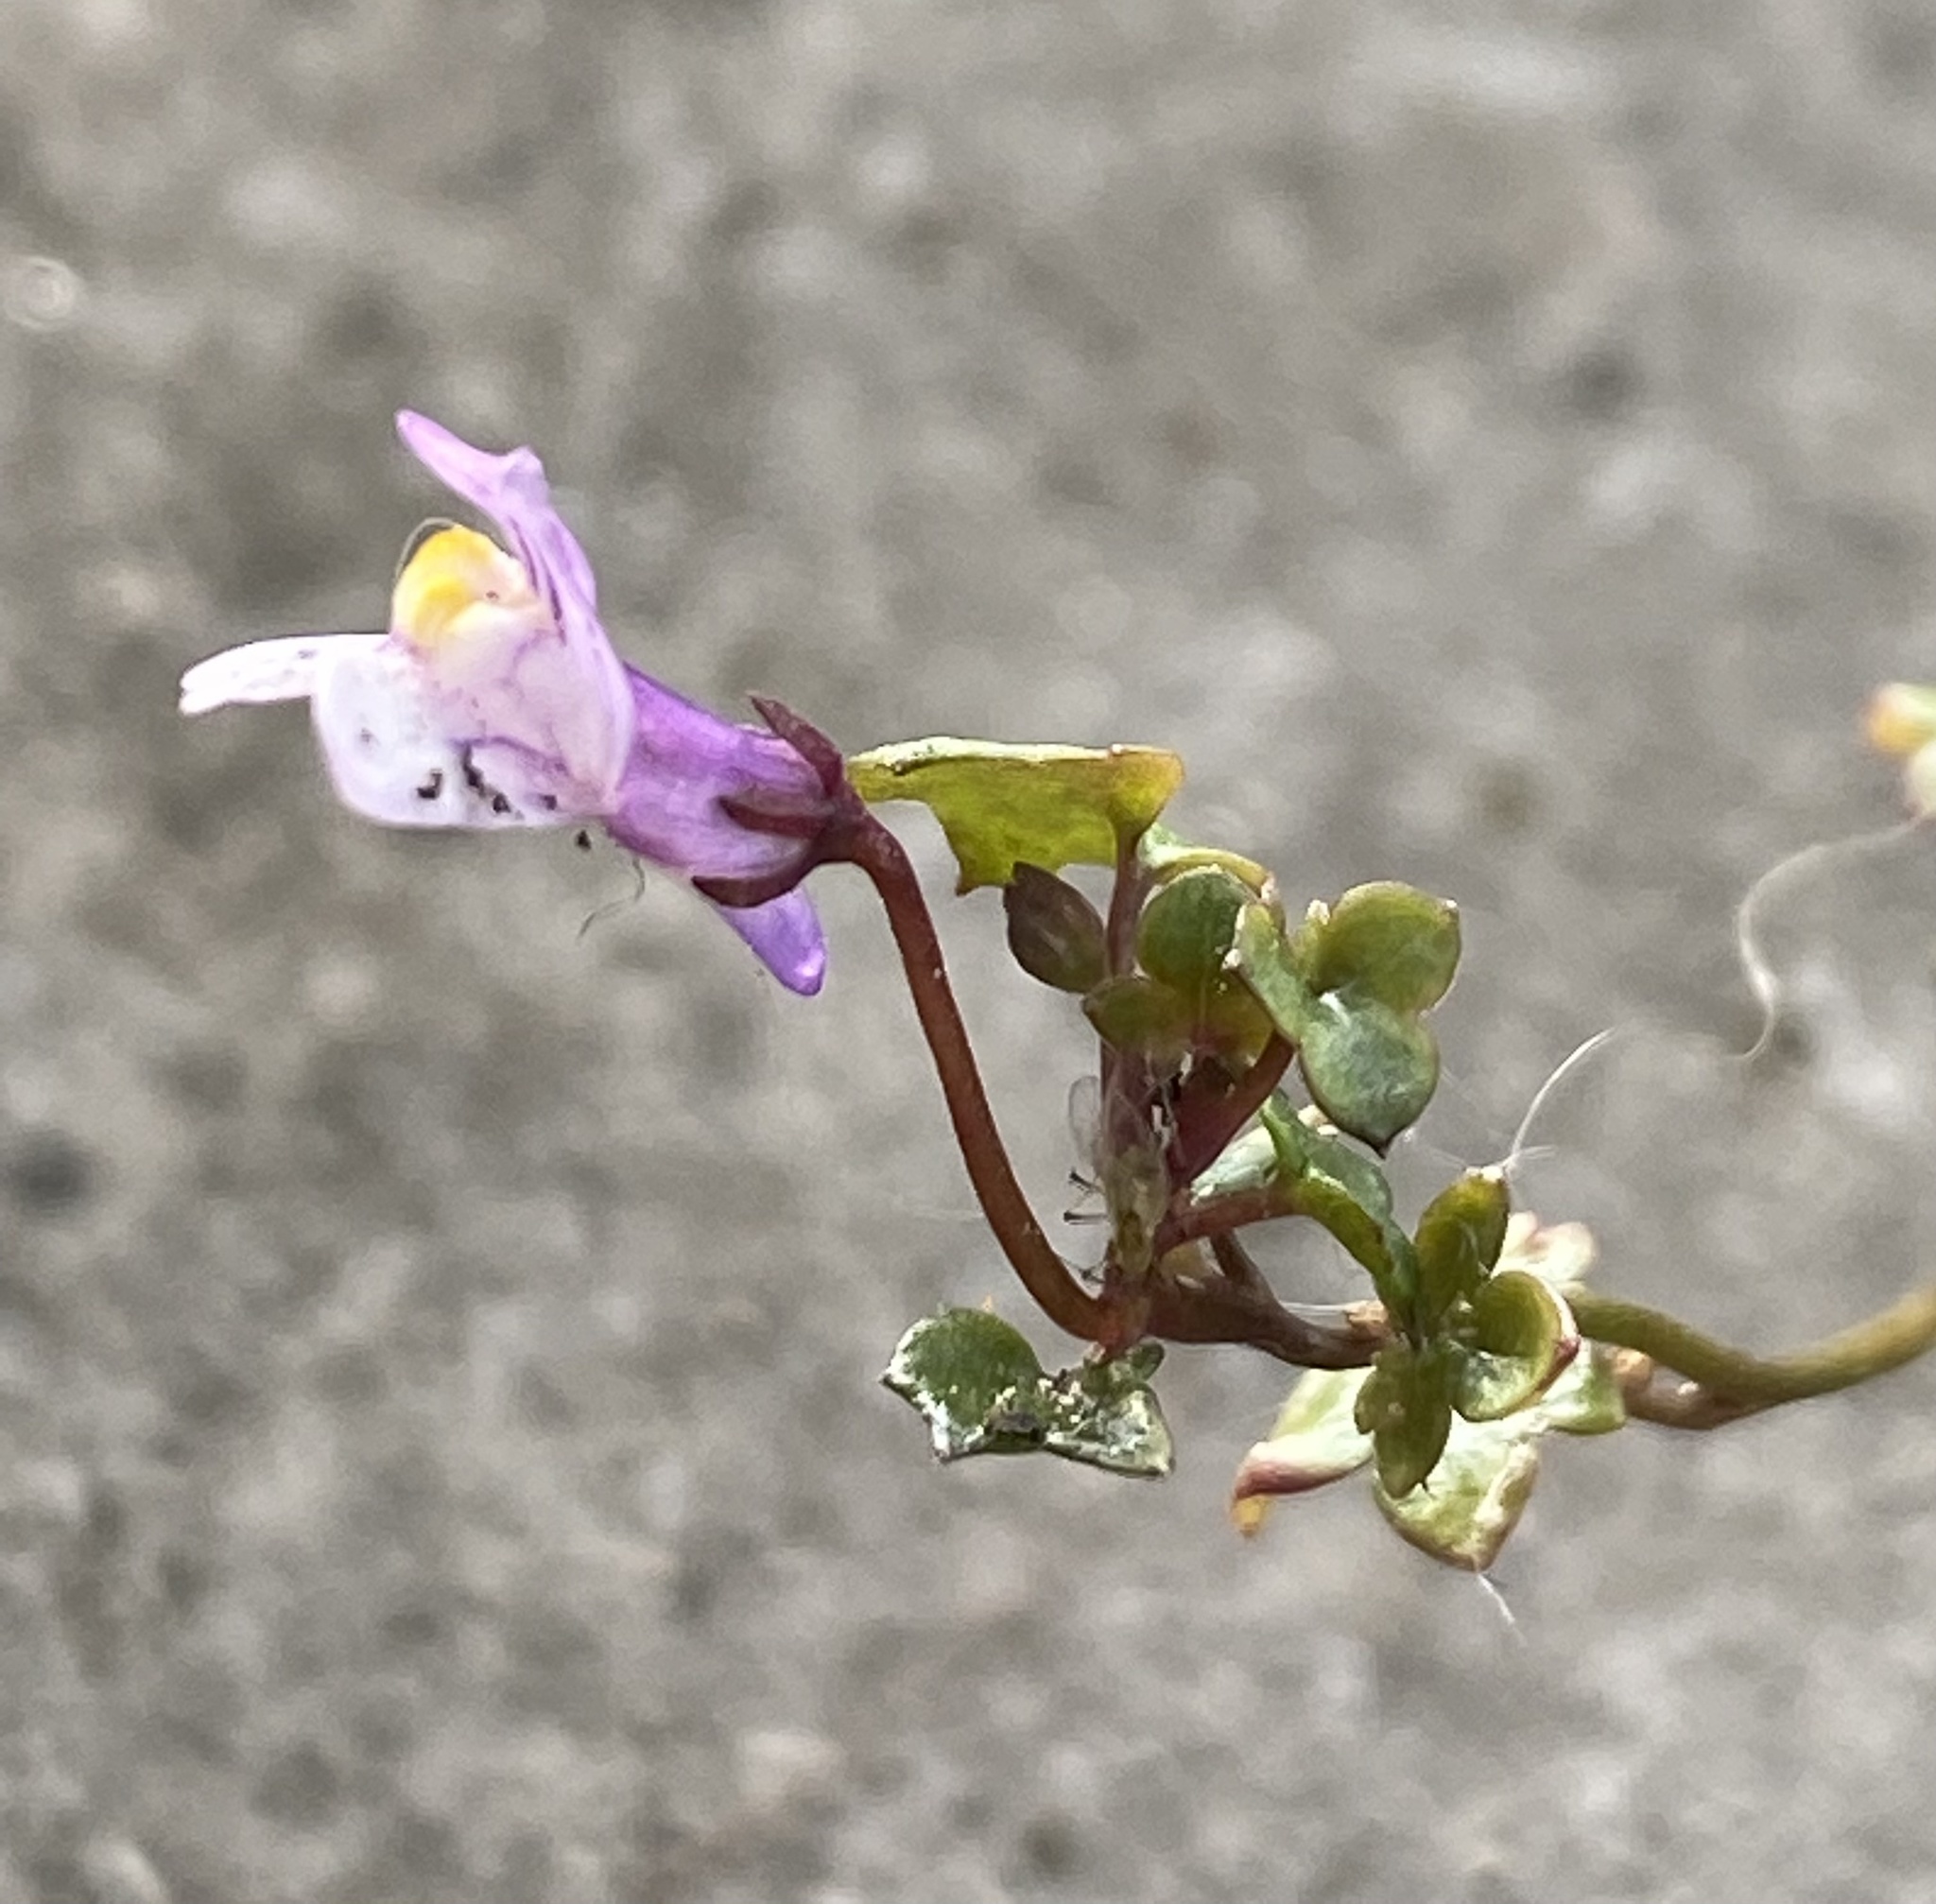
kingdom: Plantae
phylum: Tracheophyta
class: Magnoliopsida
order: Lamiales
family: Plantaginaceae
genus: Cymbalaria
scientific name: Cymbalaria muralis
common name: Ivy-leaved toadflax
